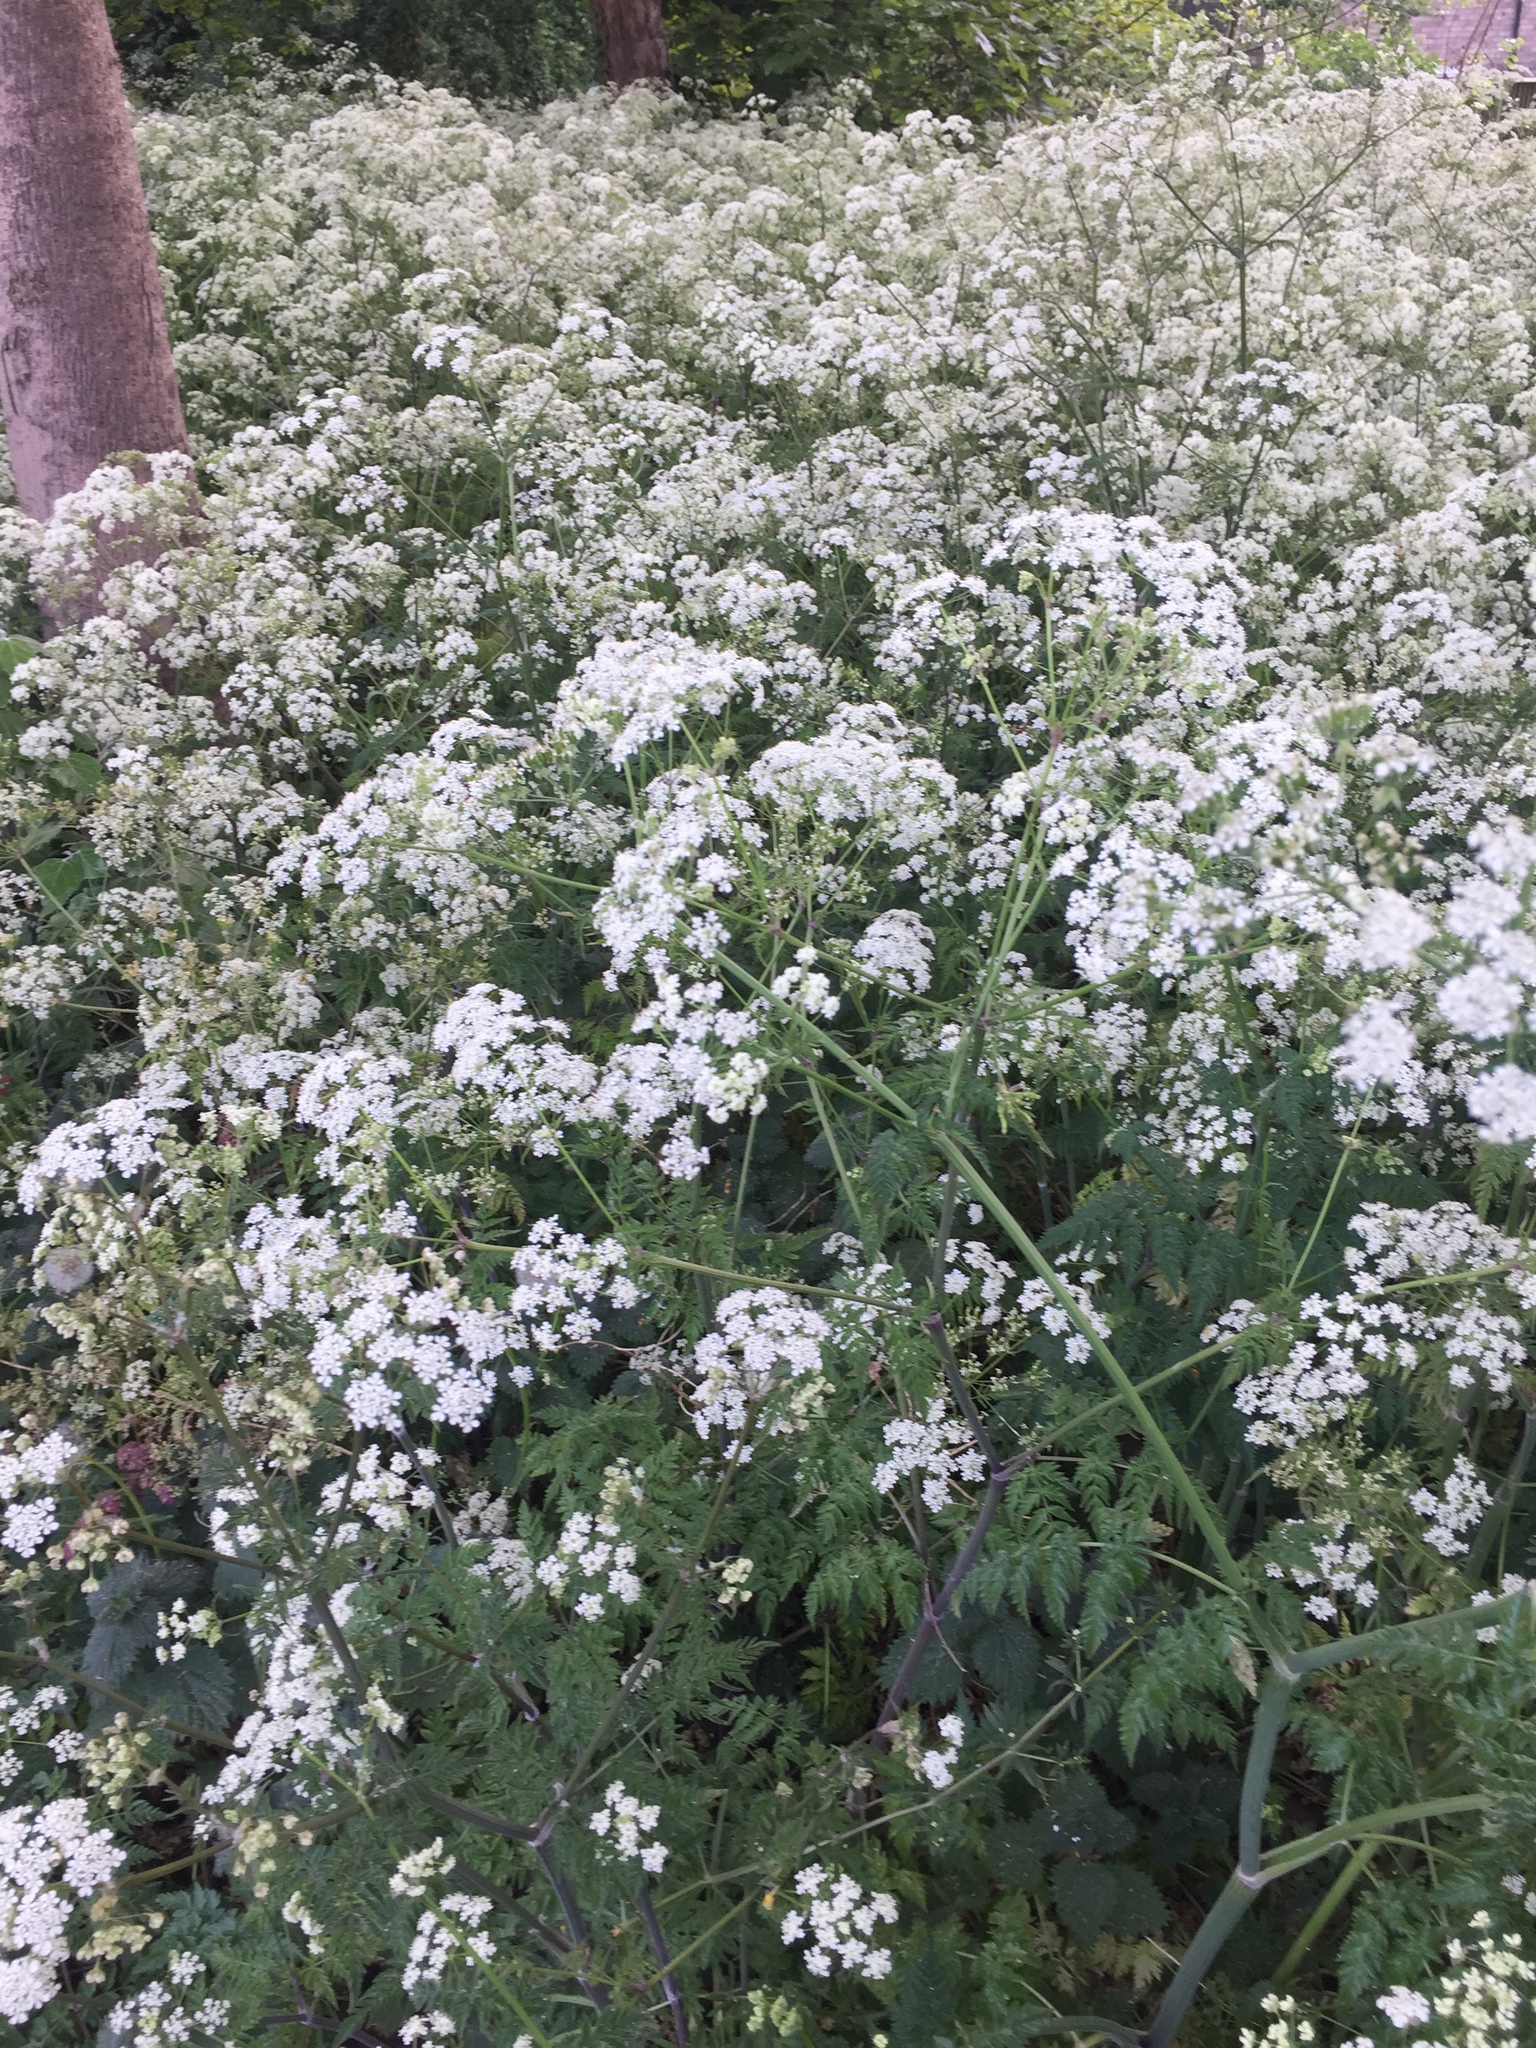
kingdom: Plantae
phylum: Tracheophyta
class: Magnoliopsida
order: Apiales
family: Apiaceae
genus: Anthriscus
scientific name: Anthriscus sylvestris
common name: Cow parsley
